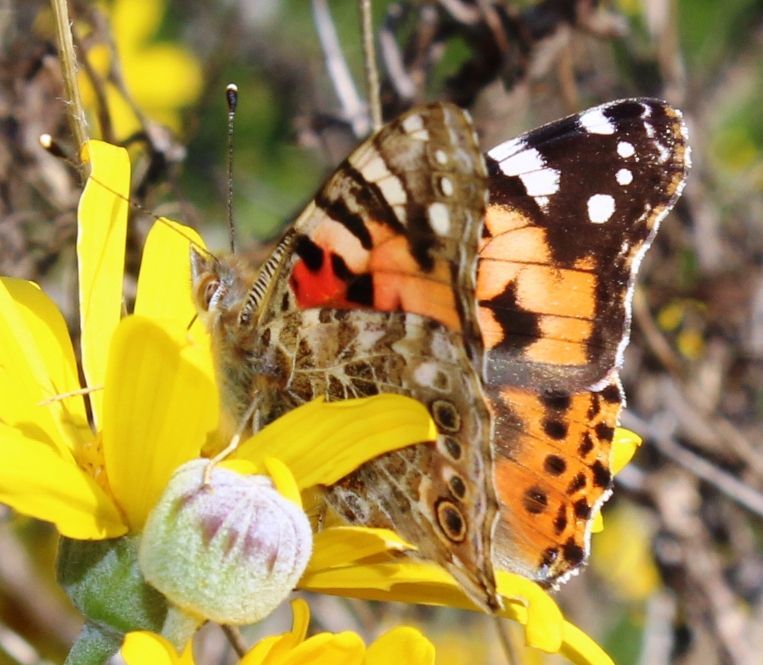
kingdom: Animalia
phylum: Arthropoda
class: Insecta
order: Lepidoptera
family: Nymphalidae
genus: Vanessa
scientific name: Vanessa cardui
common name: Painted lady
